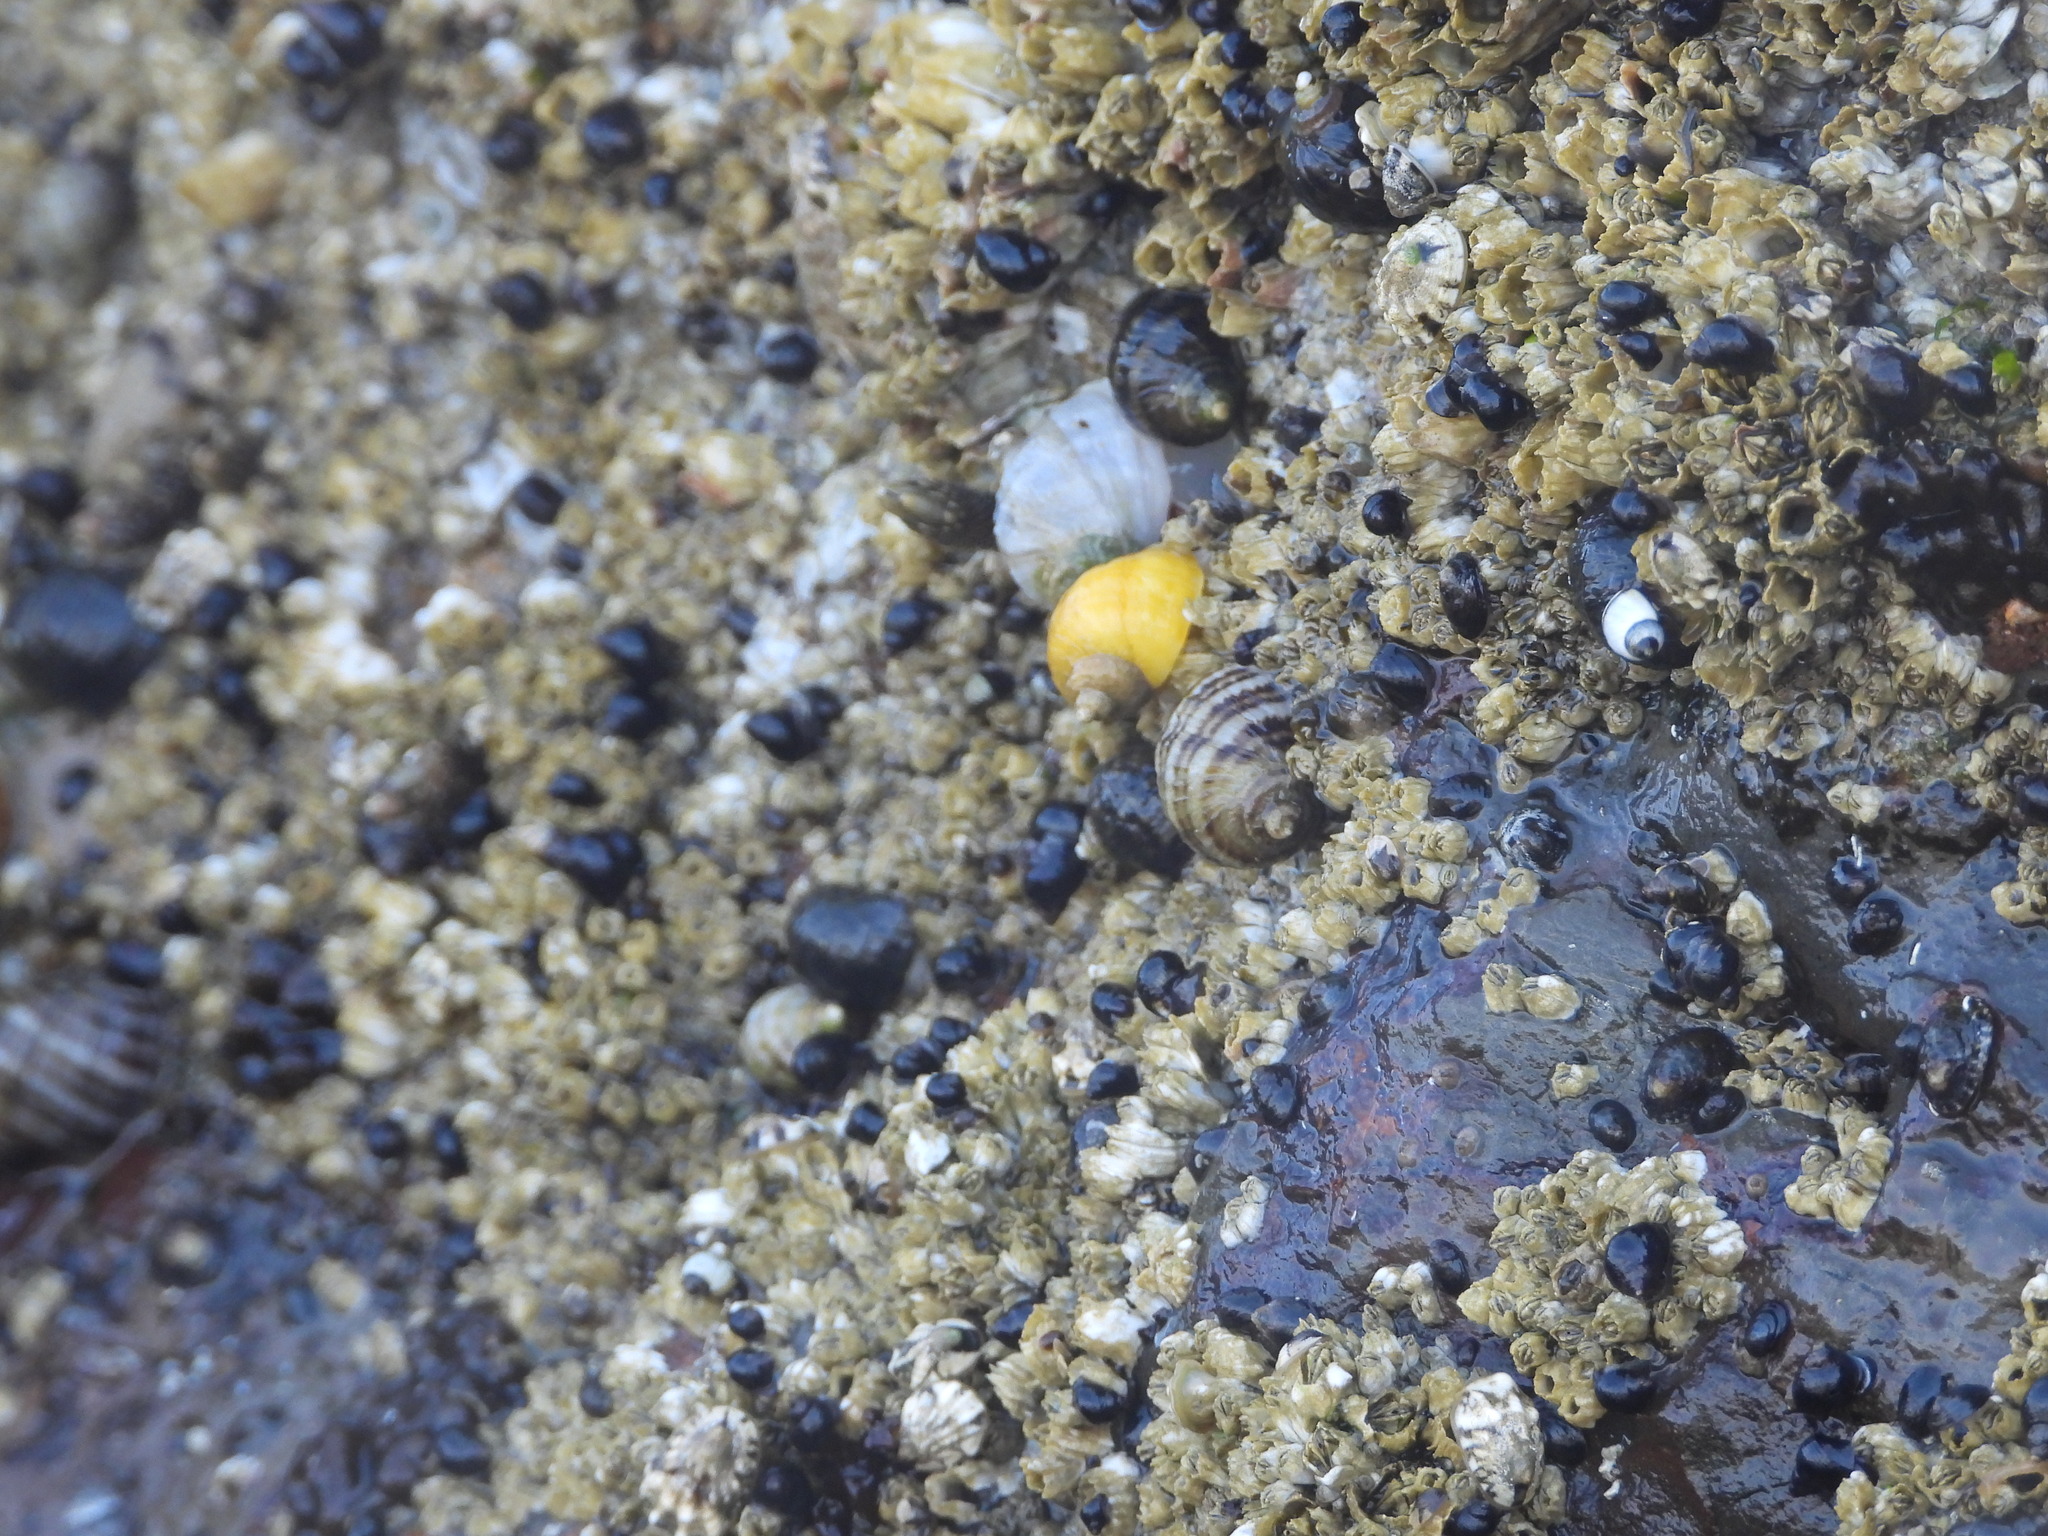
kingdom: Animalia
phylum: Mollusca
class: Gastropoda
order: Neogastropoda
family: Muricidae
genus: Nucella
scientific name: Nucella ostrina
